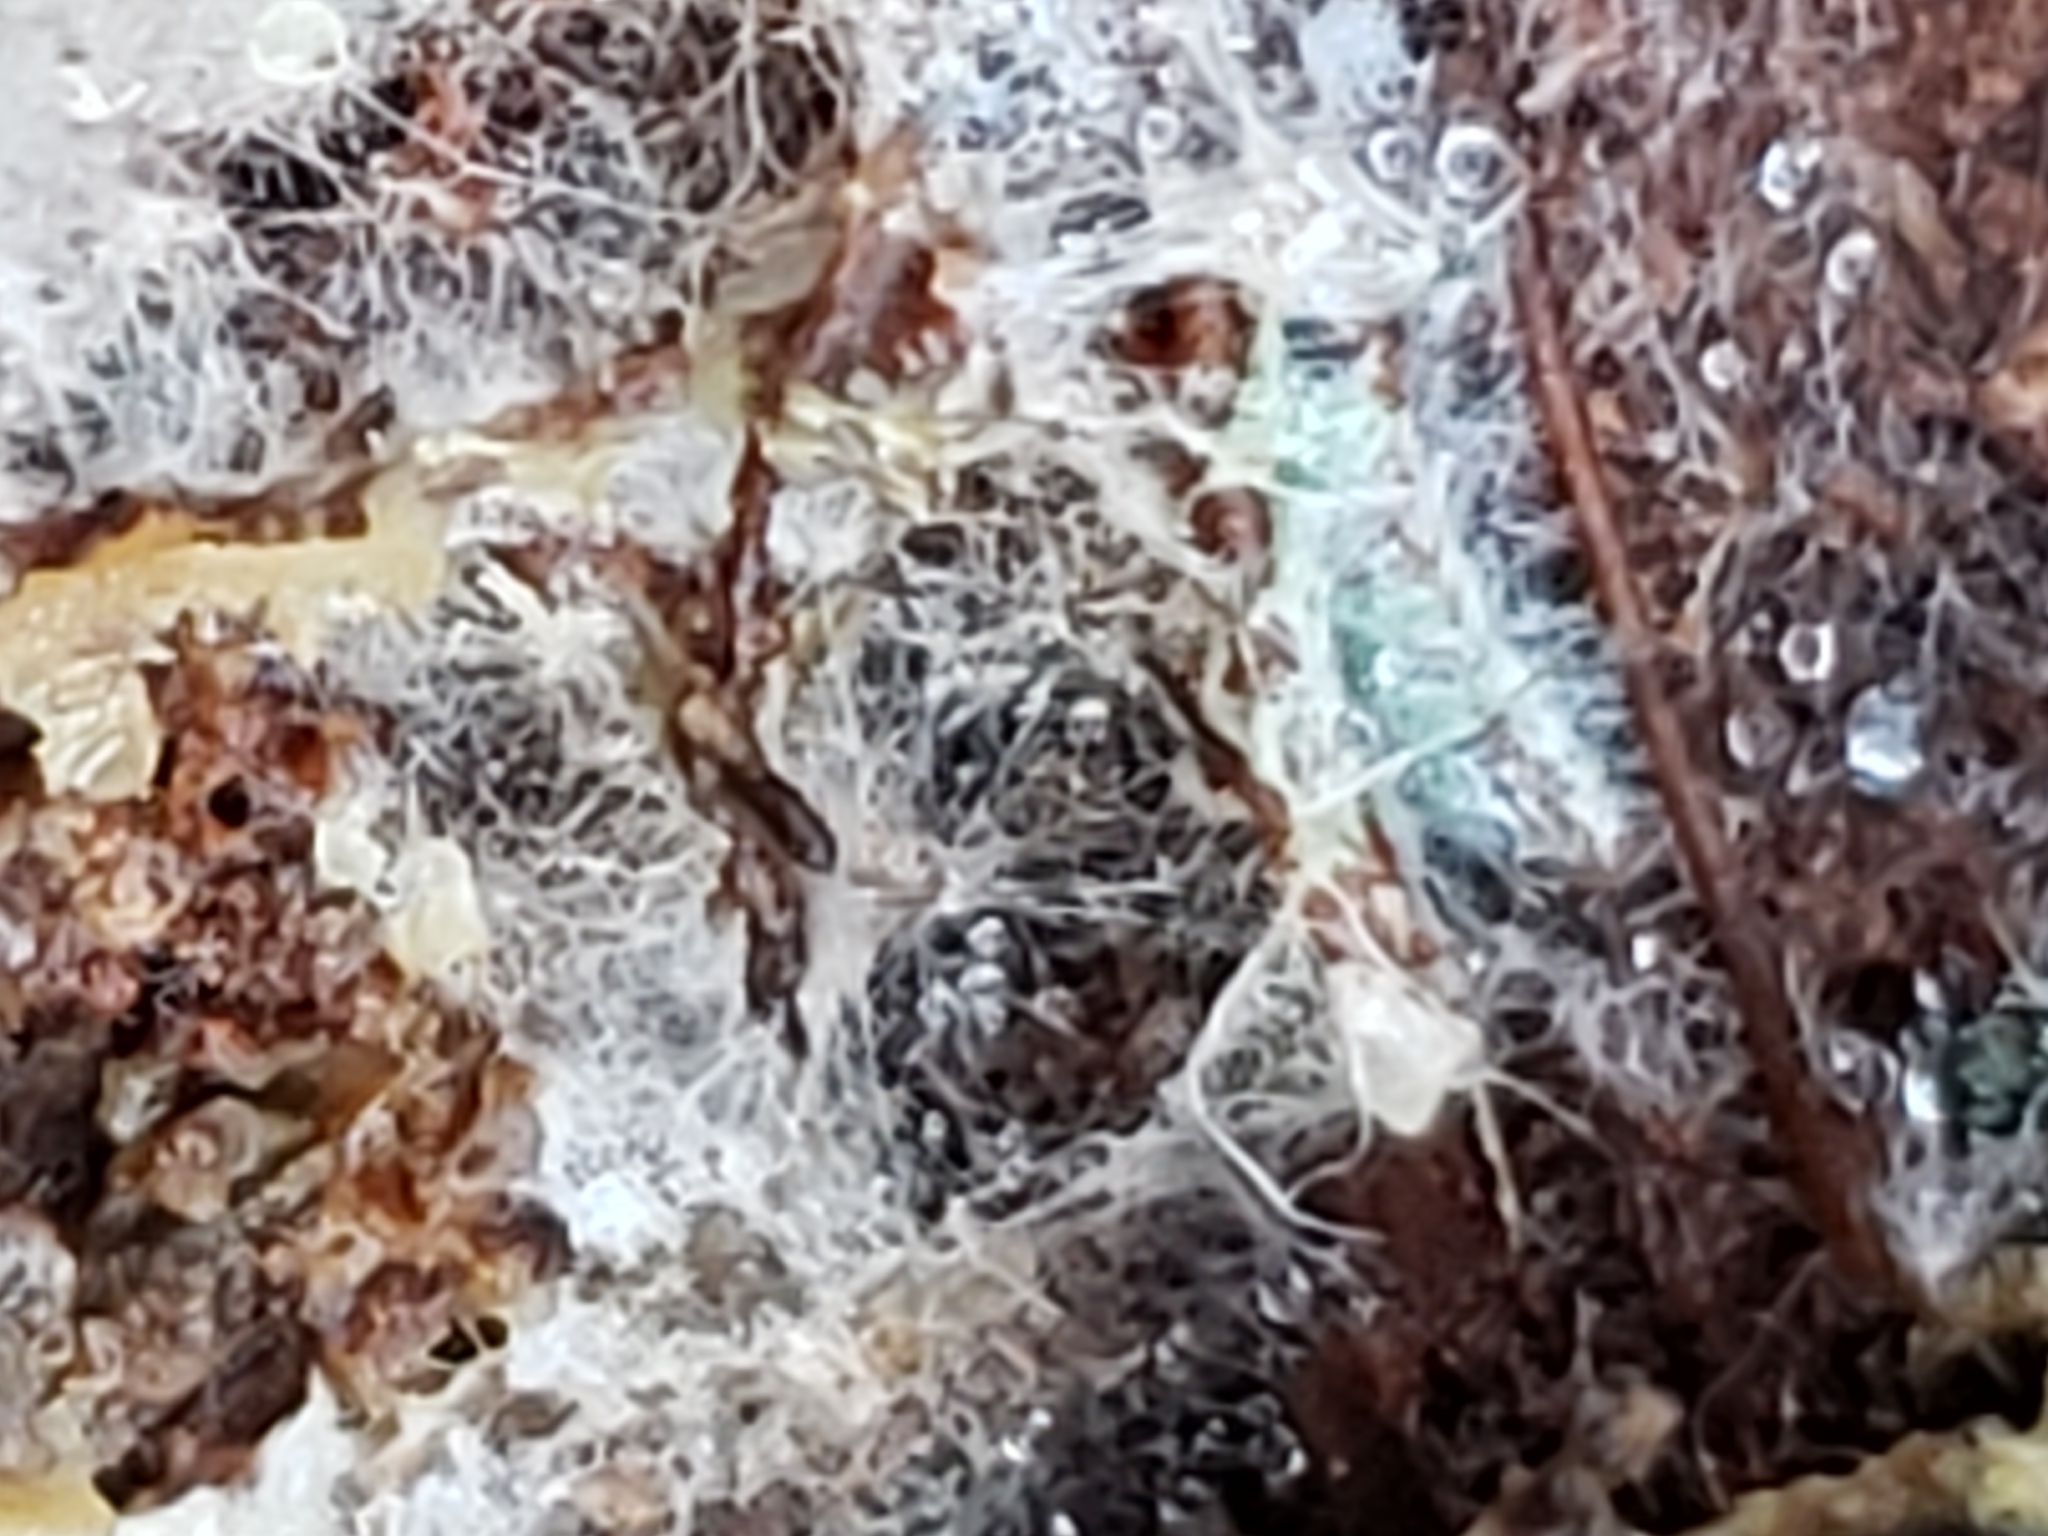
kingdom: Animalia
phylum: Arthropoda
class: Insecta
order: Hymenoptera
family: Vespidae
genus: Dolichovespula
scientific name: Dolichovespula maculata
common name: Bald-faced hornet
